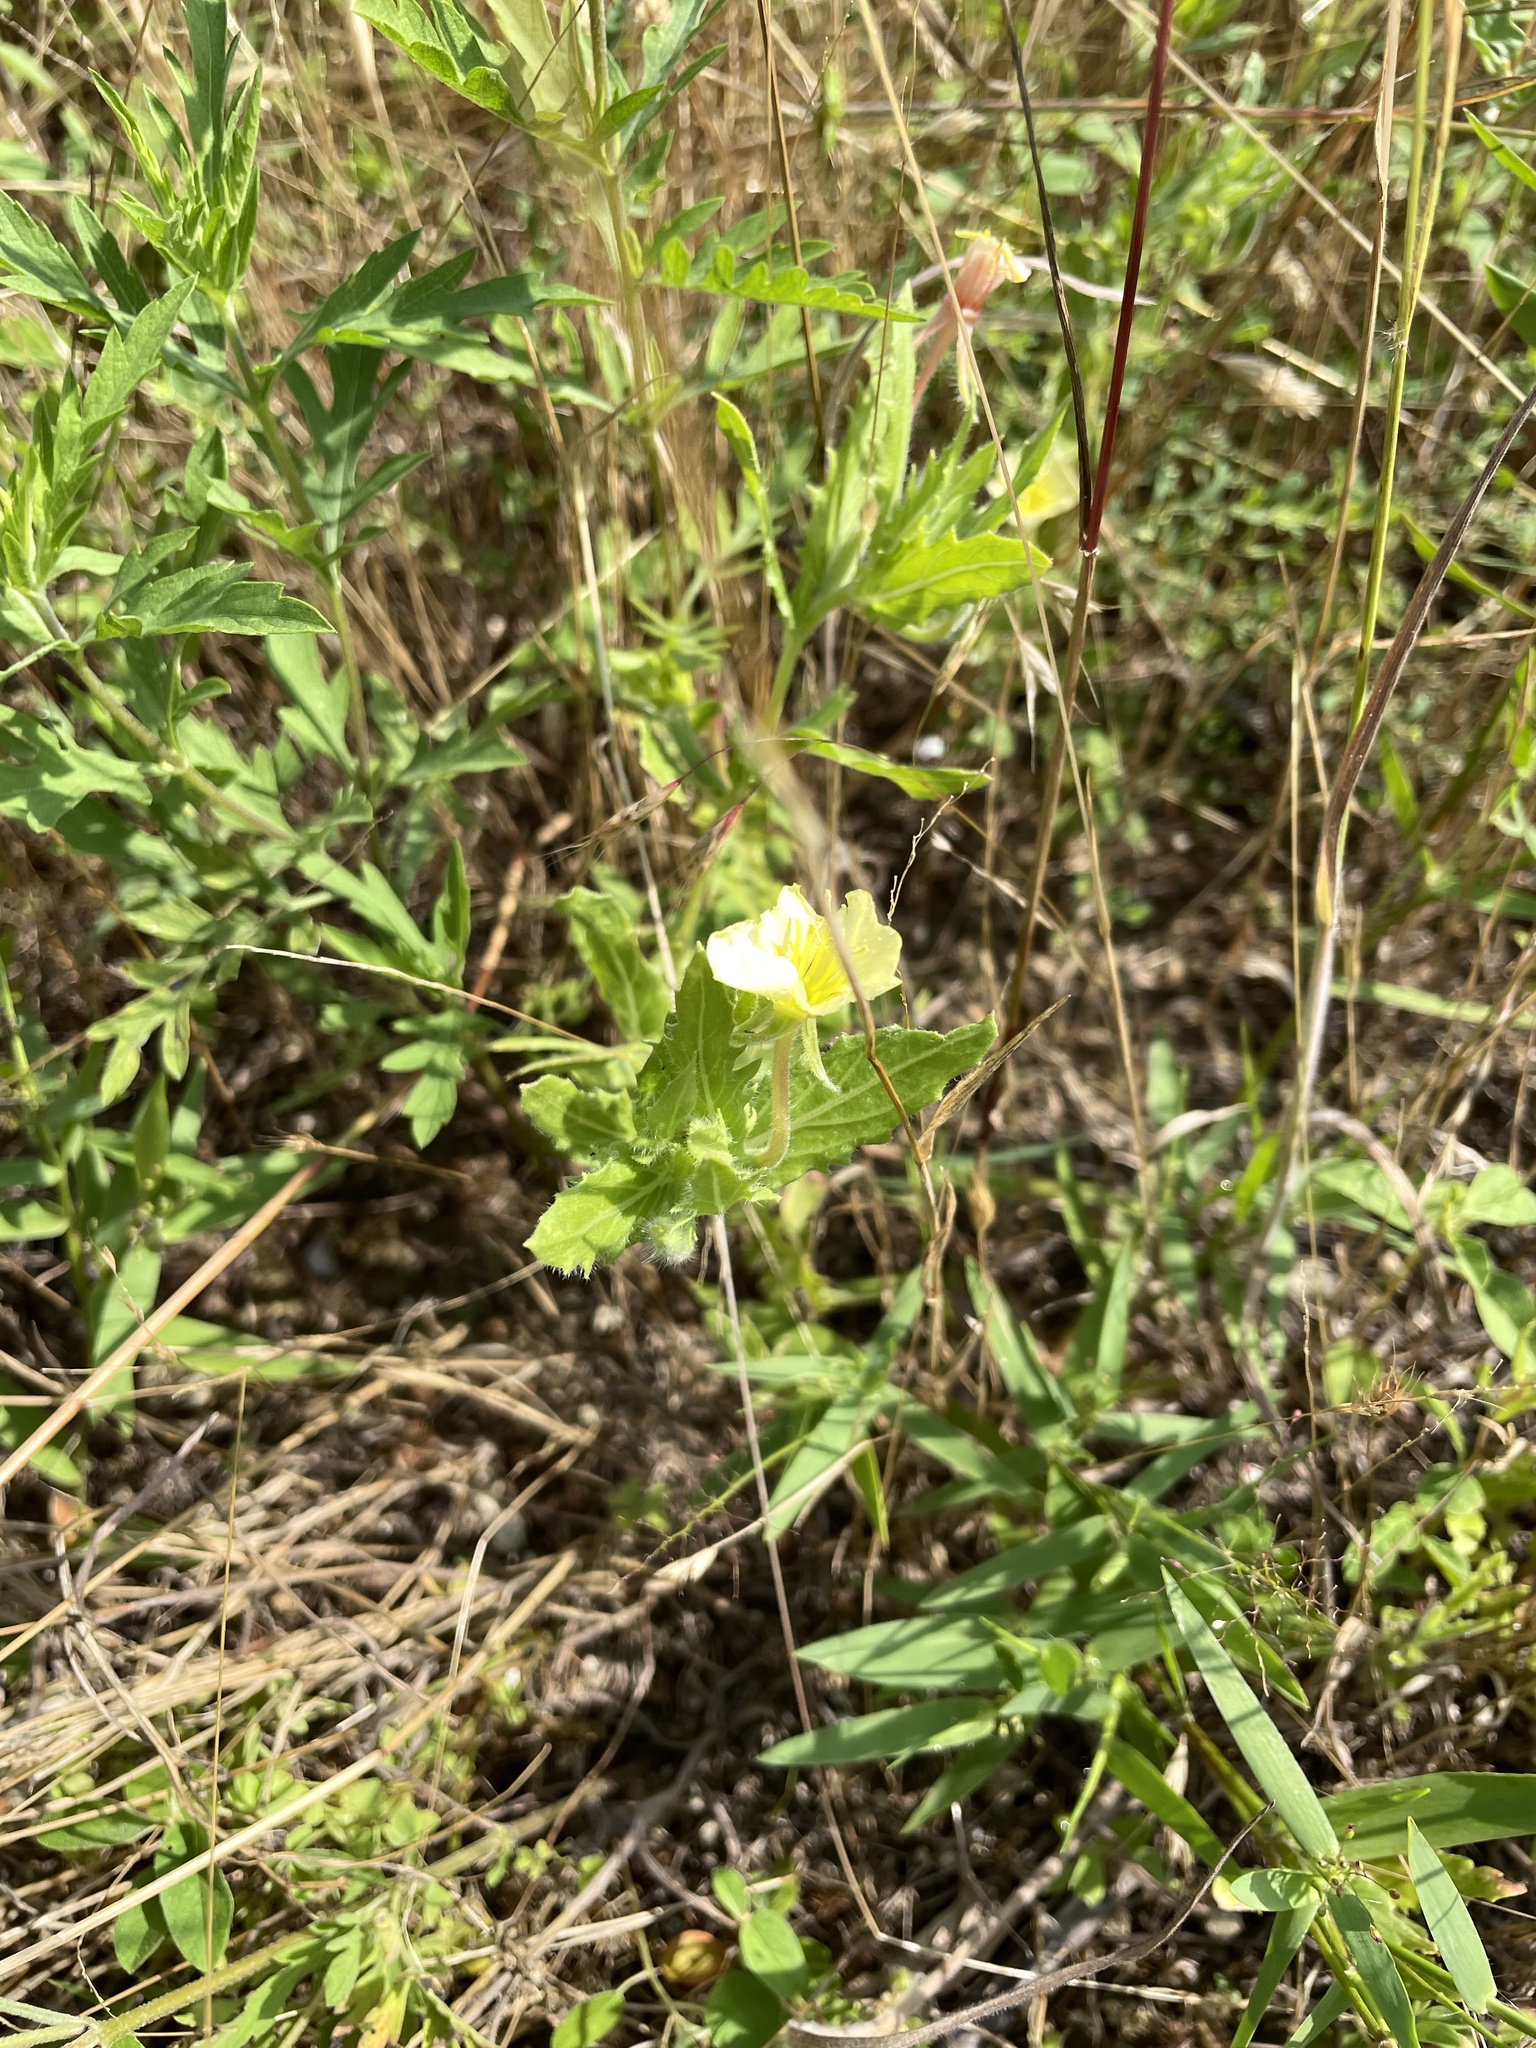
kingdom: Plantae
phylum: Tracheophyta
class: Magnoliopsida
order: Myrtales
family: Onagraceae
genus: Oenothera
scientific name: Oenothera laciniata
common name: Cut-leaved evening-primrose
